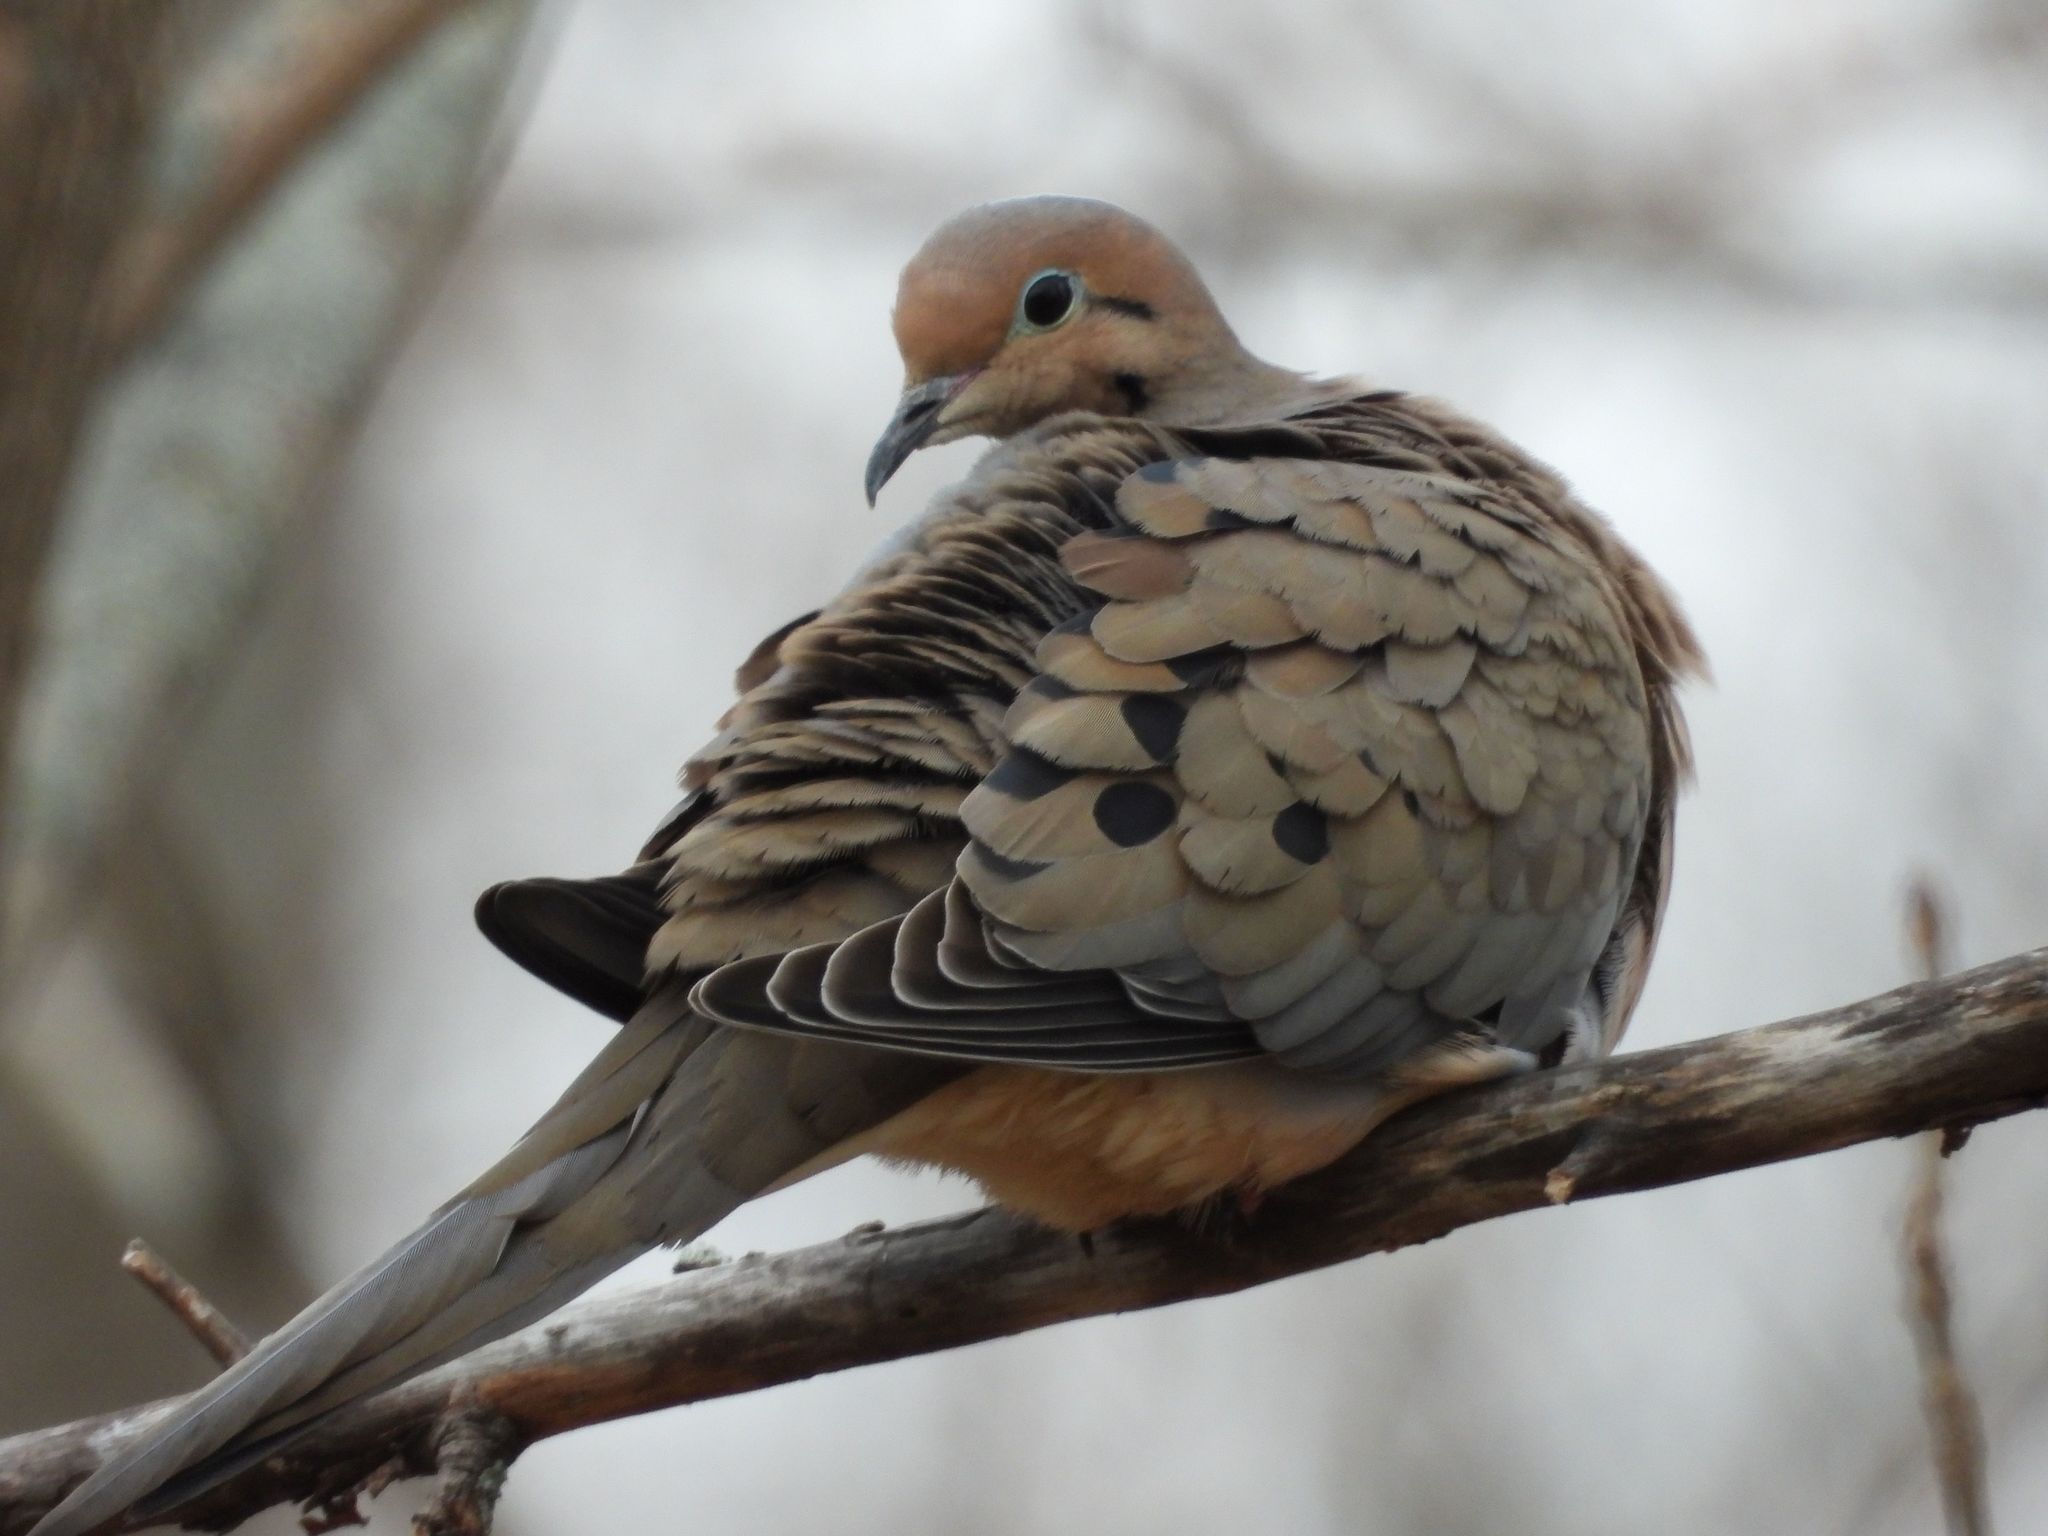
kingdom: Animalia
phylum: Chordata
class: Aves
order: Columbiformes
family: Columbidae
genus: Zenaida
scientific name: Zenaida macroura
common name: Mourning dove
